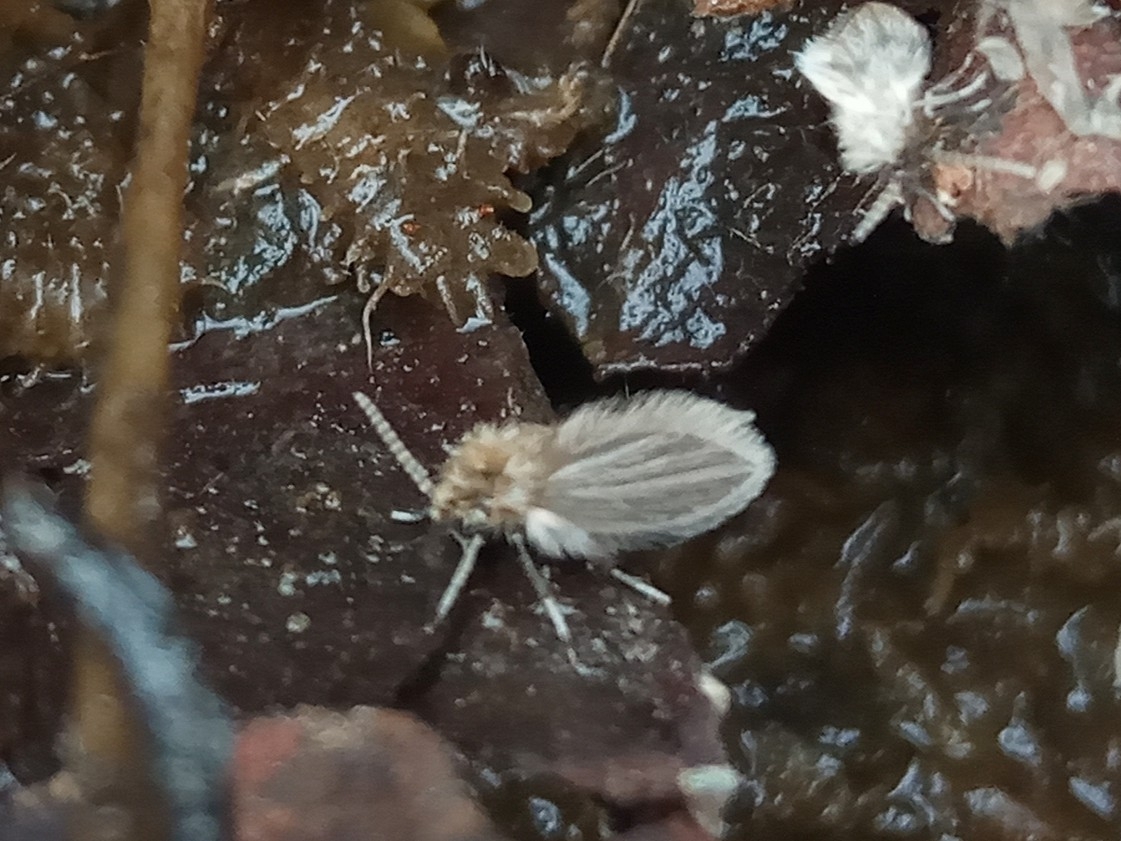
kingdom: Animalia
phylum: Arthropoda
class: Insecta
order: Diptera
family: Psychodidae
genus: Psychoda
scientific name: Psychoda
